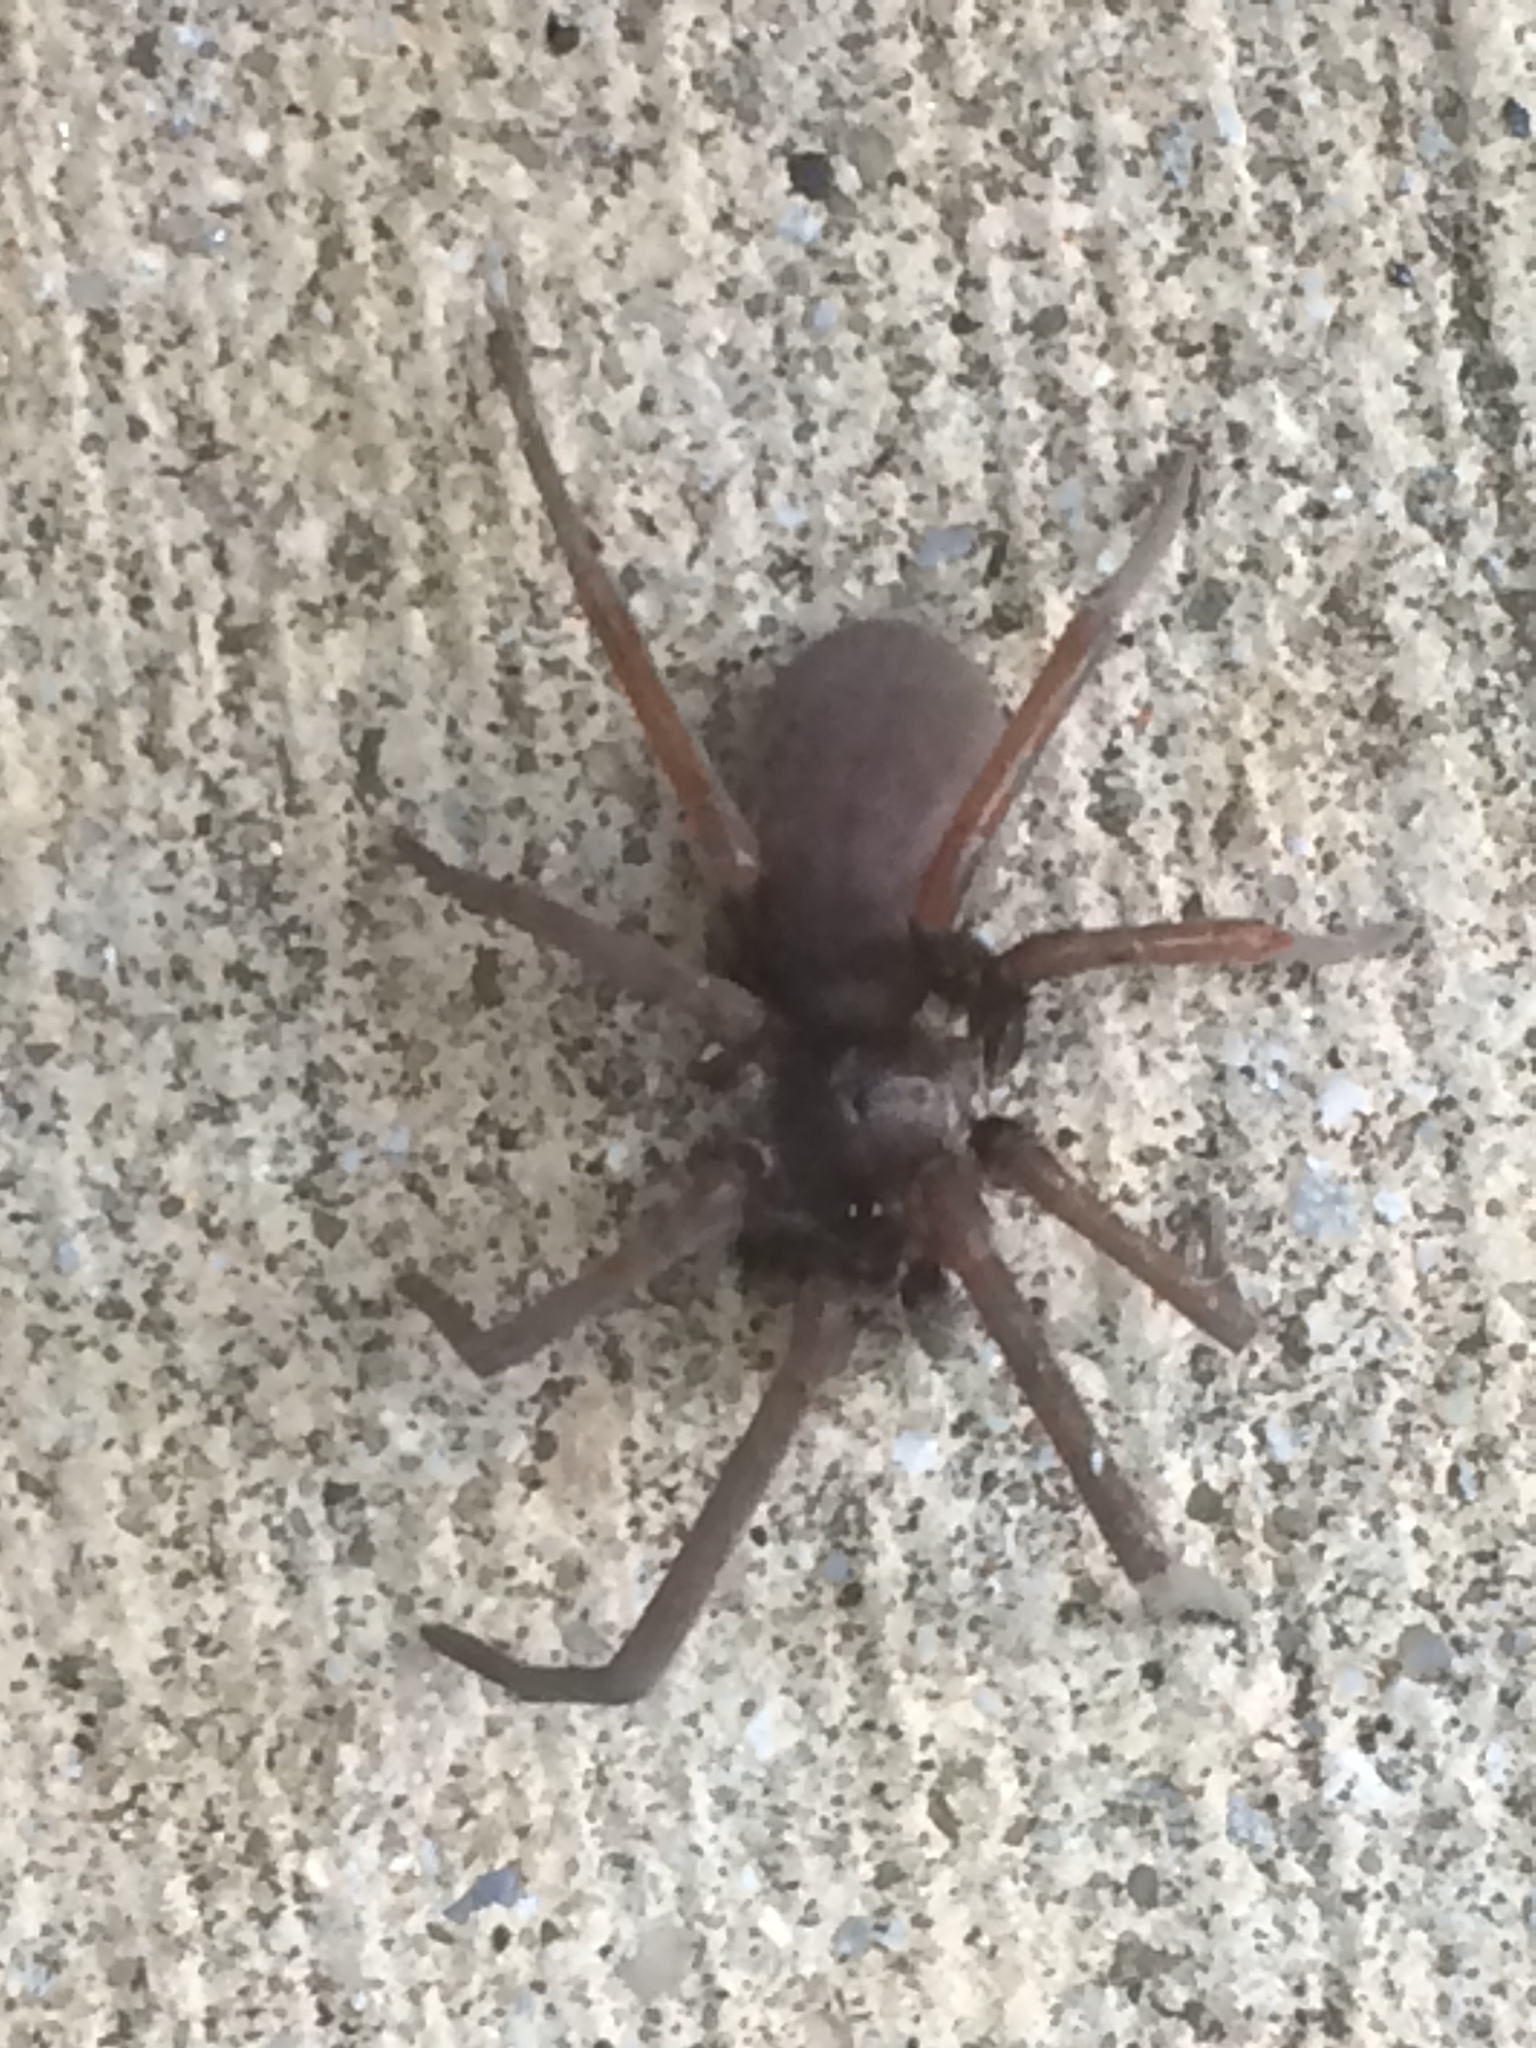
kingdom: Animalia
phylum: Arthropoda
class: Arachnida
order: Araneae
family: Filistatidae
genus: Kukulcania
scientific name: Kukulcania hibernalis
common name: Crevice weaver
